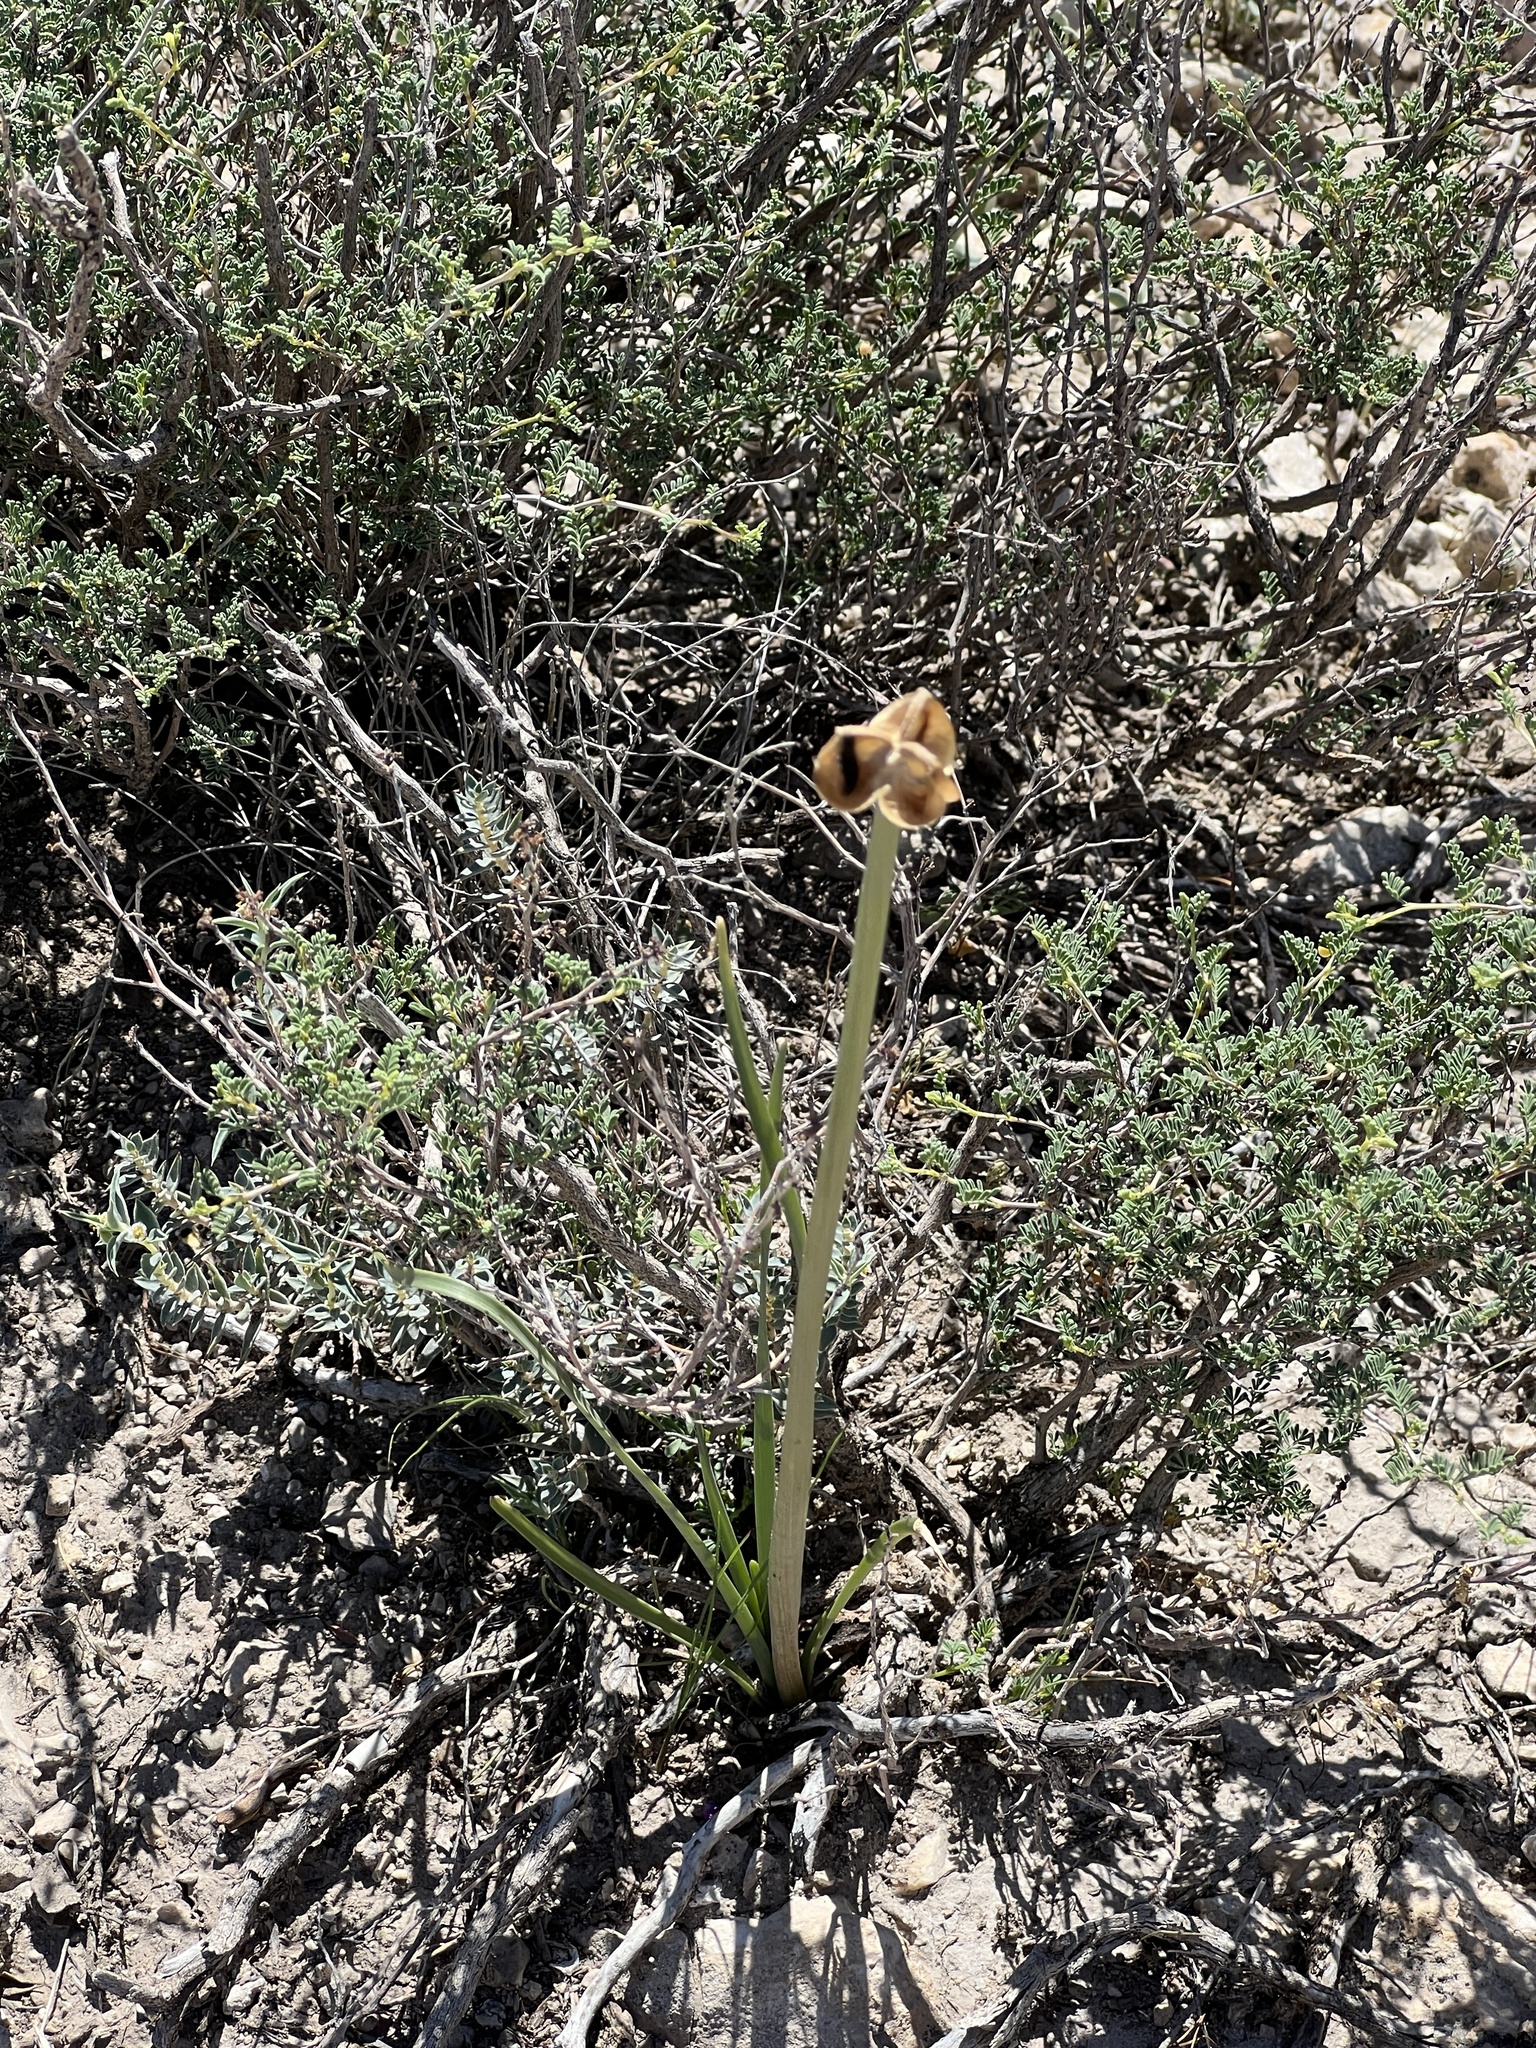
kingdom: Plantae
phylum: Tracheophyta
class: Liliopsida
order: Asparagales
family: Amaryllidaceae
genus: Zephyranthes
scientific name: Zephyranthes
